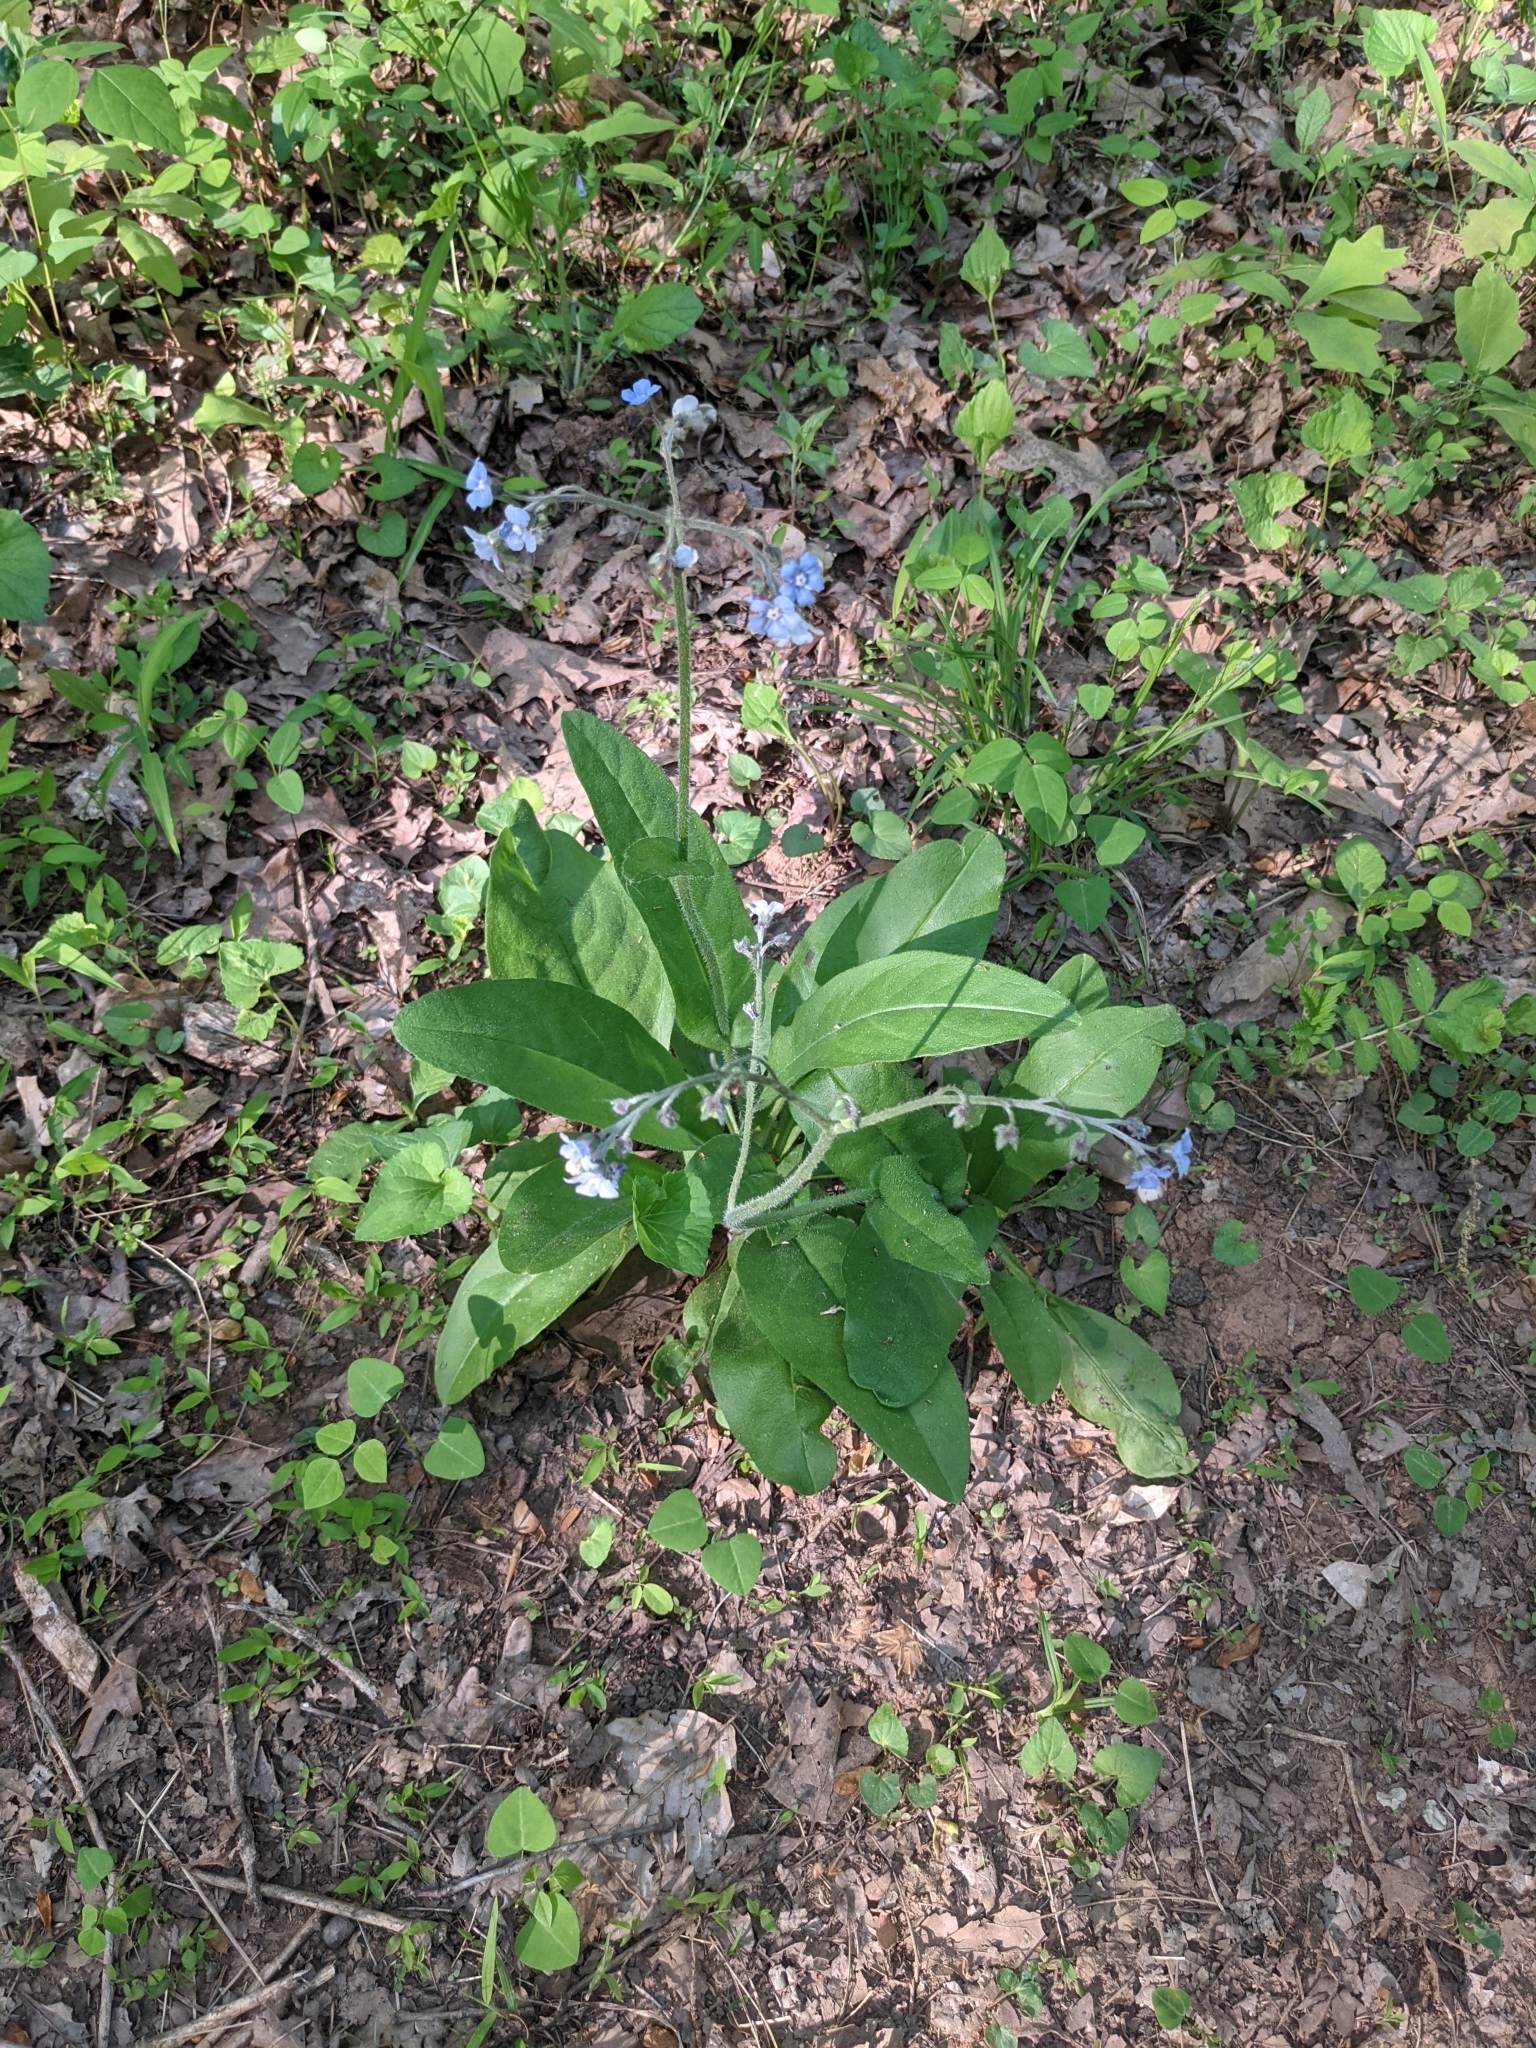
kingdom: Plantae
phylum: Tracheophyta
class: Magnoliopsida
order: Boraginales
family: Boraginaceae
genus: Andersonglossum
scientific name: Andersonglossum virginianum
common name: Wild comfrey
